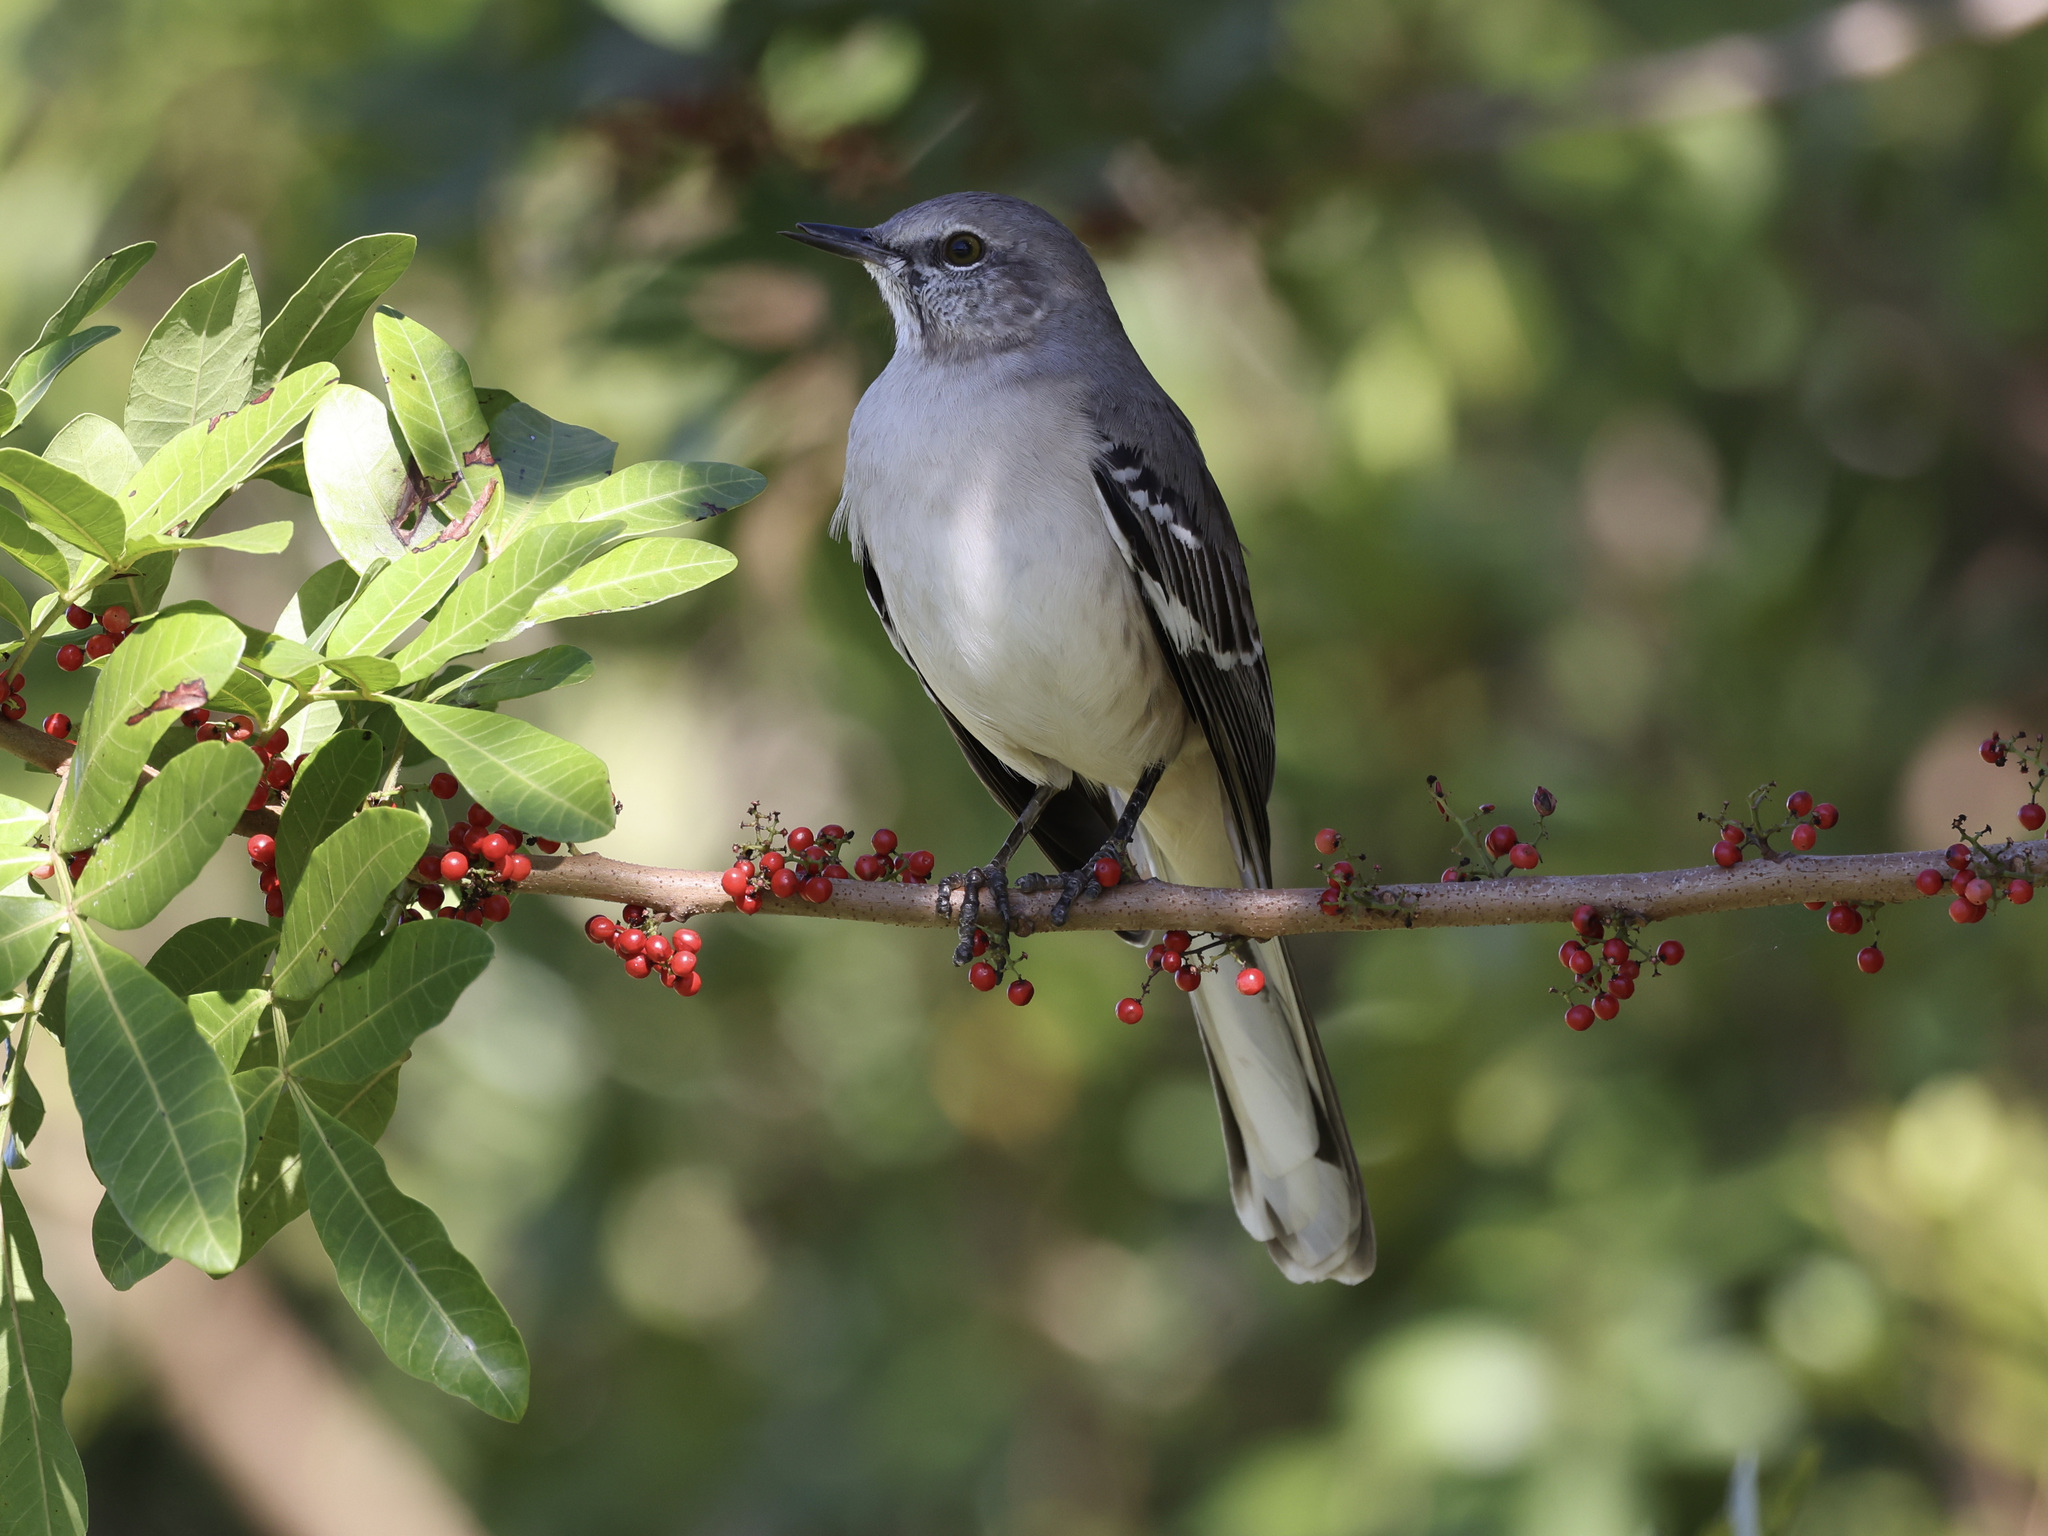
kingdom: Animalia
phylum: Chordata
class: Aves
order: Passeriformes
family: Mimidae
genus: Mimus
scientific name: Mimus polyglottos
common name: Northern mockingbird
